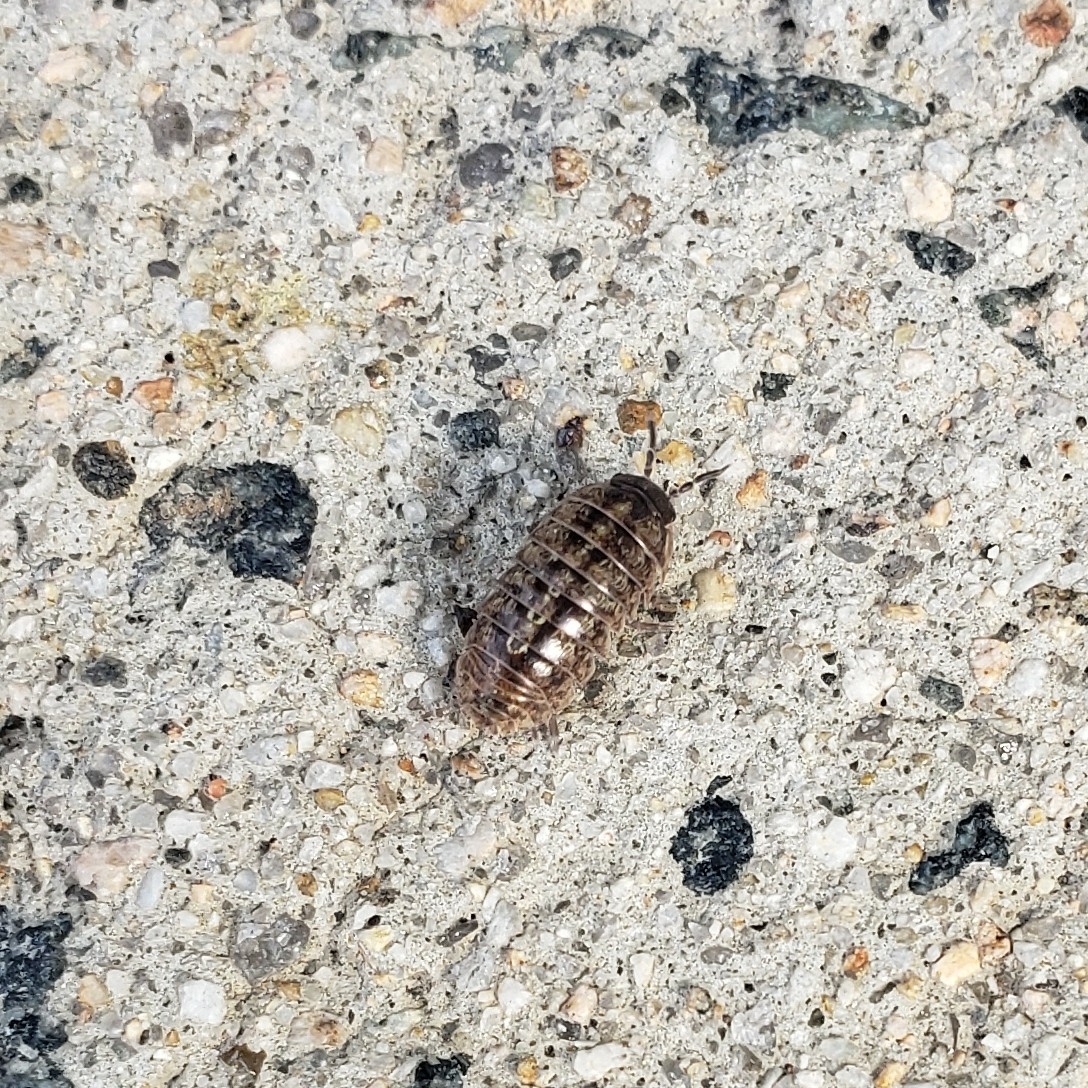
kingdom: Animalia
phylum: Arthropoda
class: Malacostraca
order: Isopoda
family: Armadillidiidae
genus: Armadillidium
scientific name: Armadillidium vulgare
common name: Common pill woodlouse
